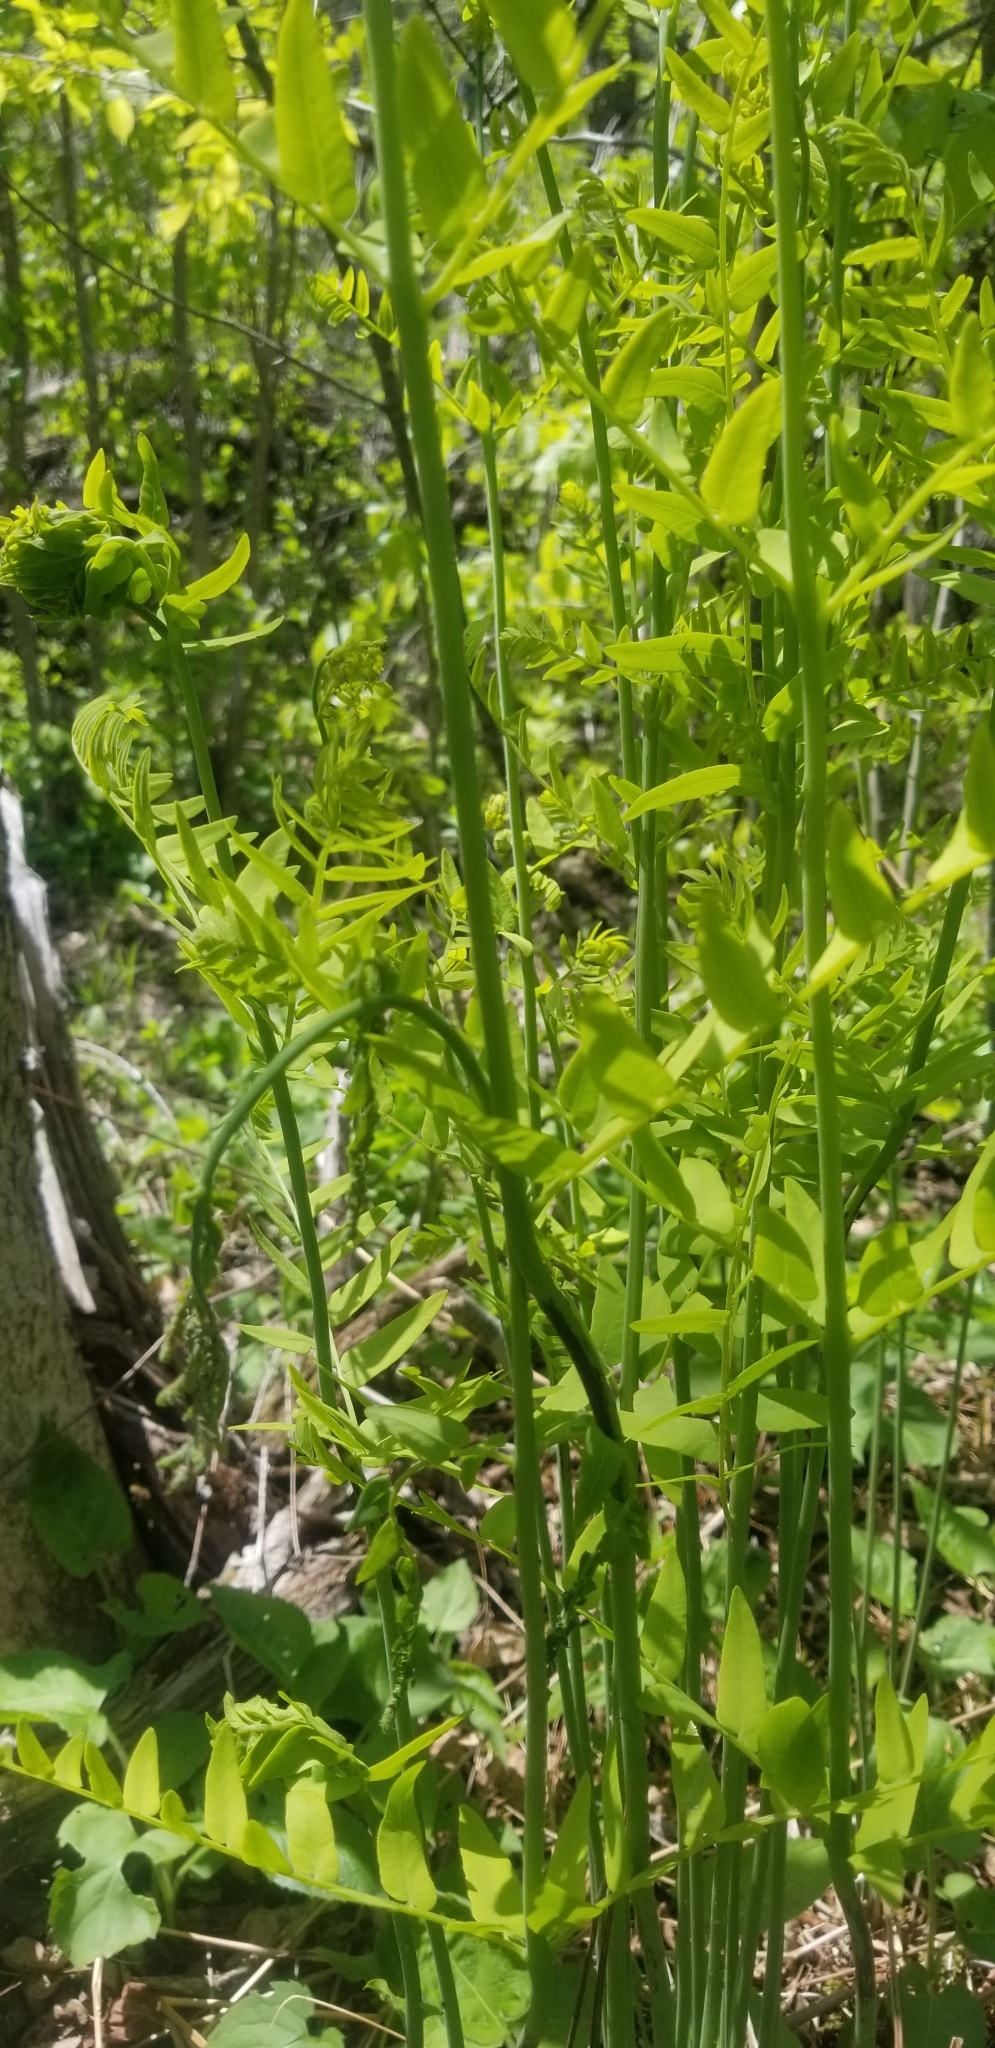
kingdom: Plantae
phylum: Tracheophyta
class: Polypodiopsida
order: Osmundales
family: Osmundaceae
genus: Osmunda
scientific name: Osmunda spectabilis
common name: American royal fern
